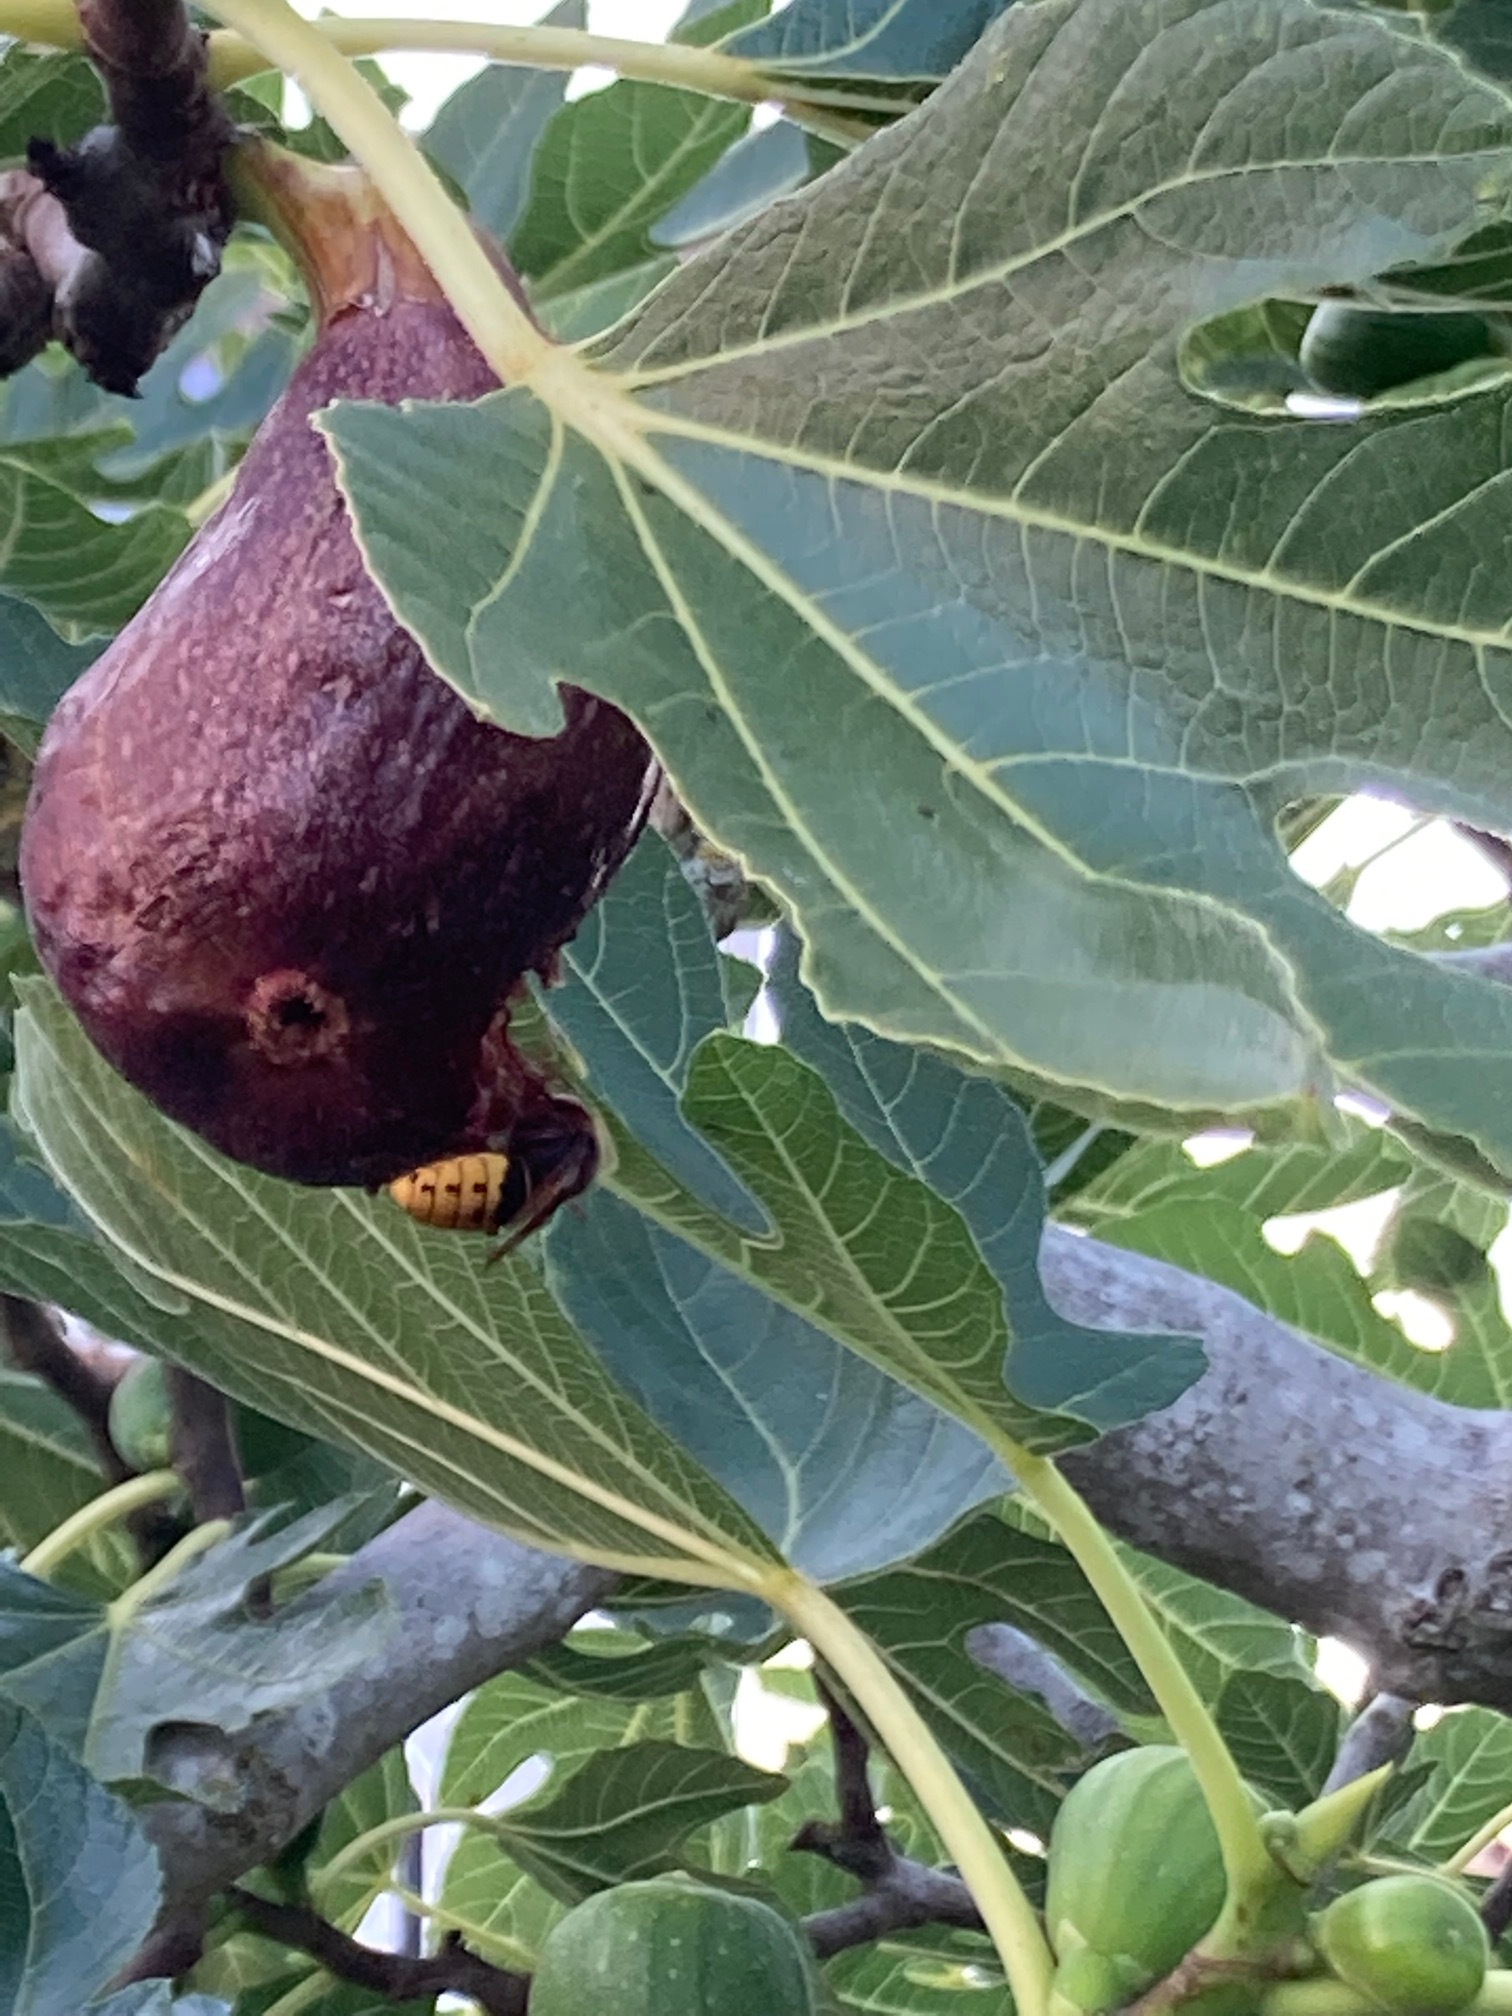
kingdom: Animalia
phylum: Arthropoda
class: Insecta
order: Hymenoptera
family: Vespidae
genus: Vespa
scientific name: Vespa crabro
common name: Hornet
